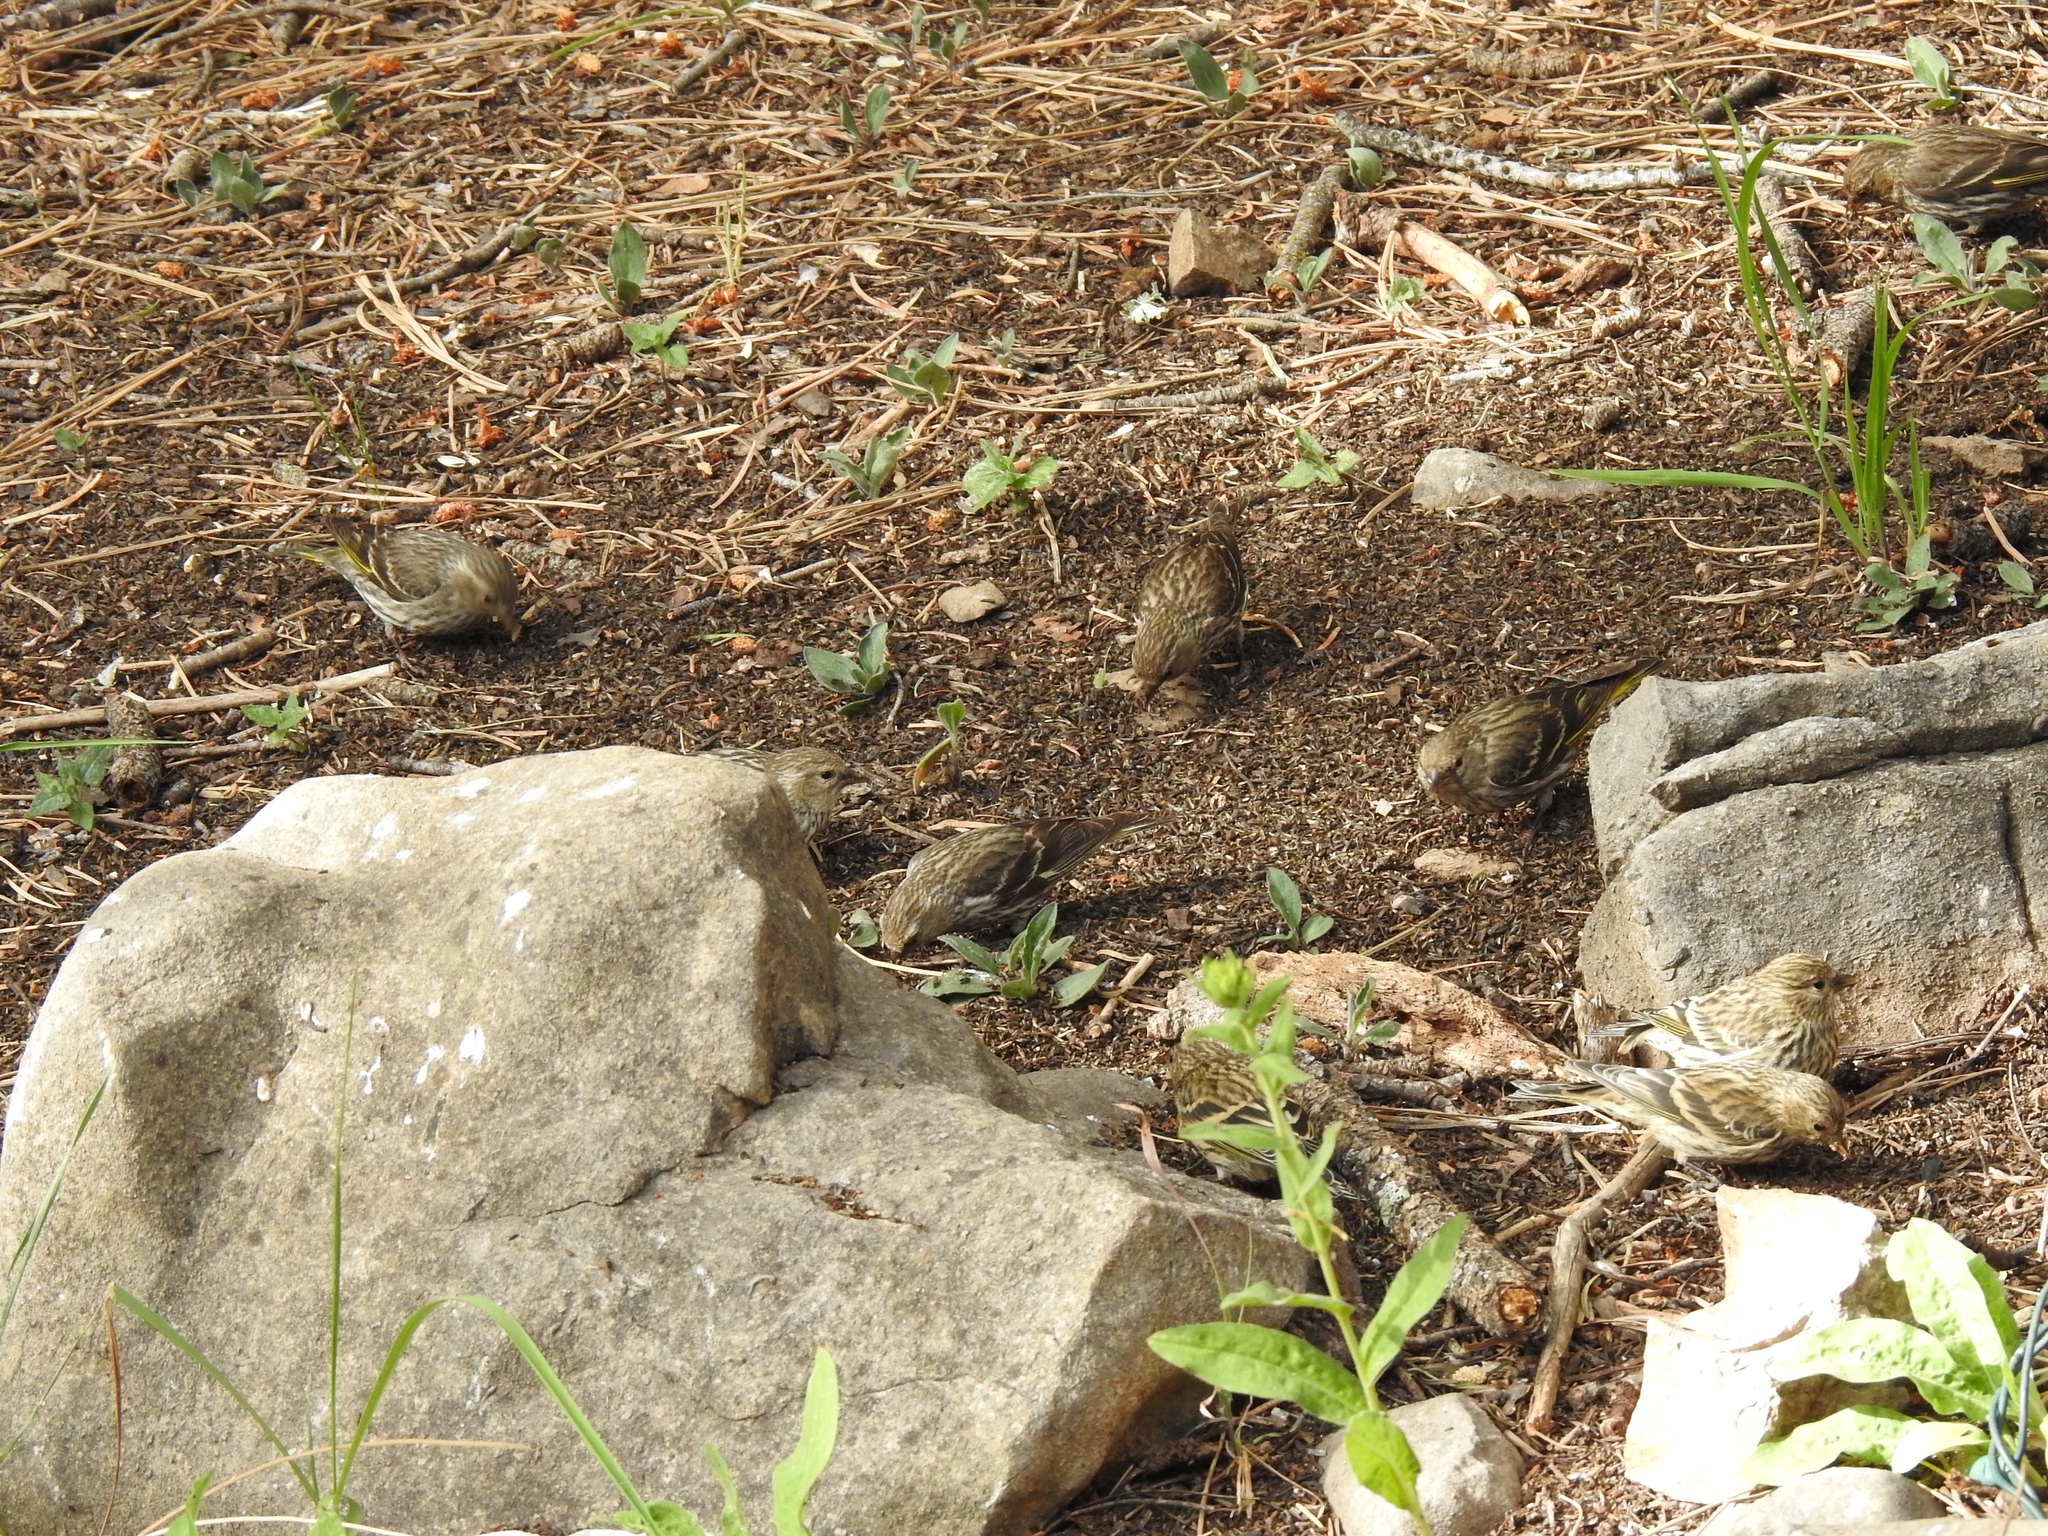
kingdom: Animalia
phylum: Chordata
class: Aves
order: Passeriformes
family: Fringillidae
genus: Spinus
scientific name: Spinus pinus
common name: Pine siskin
